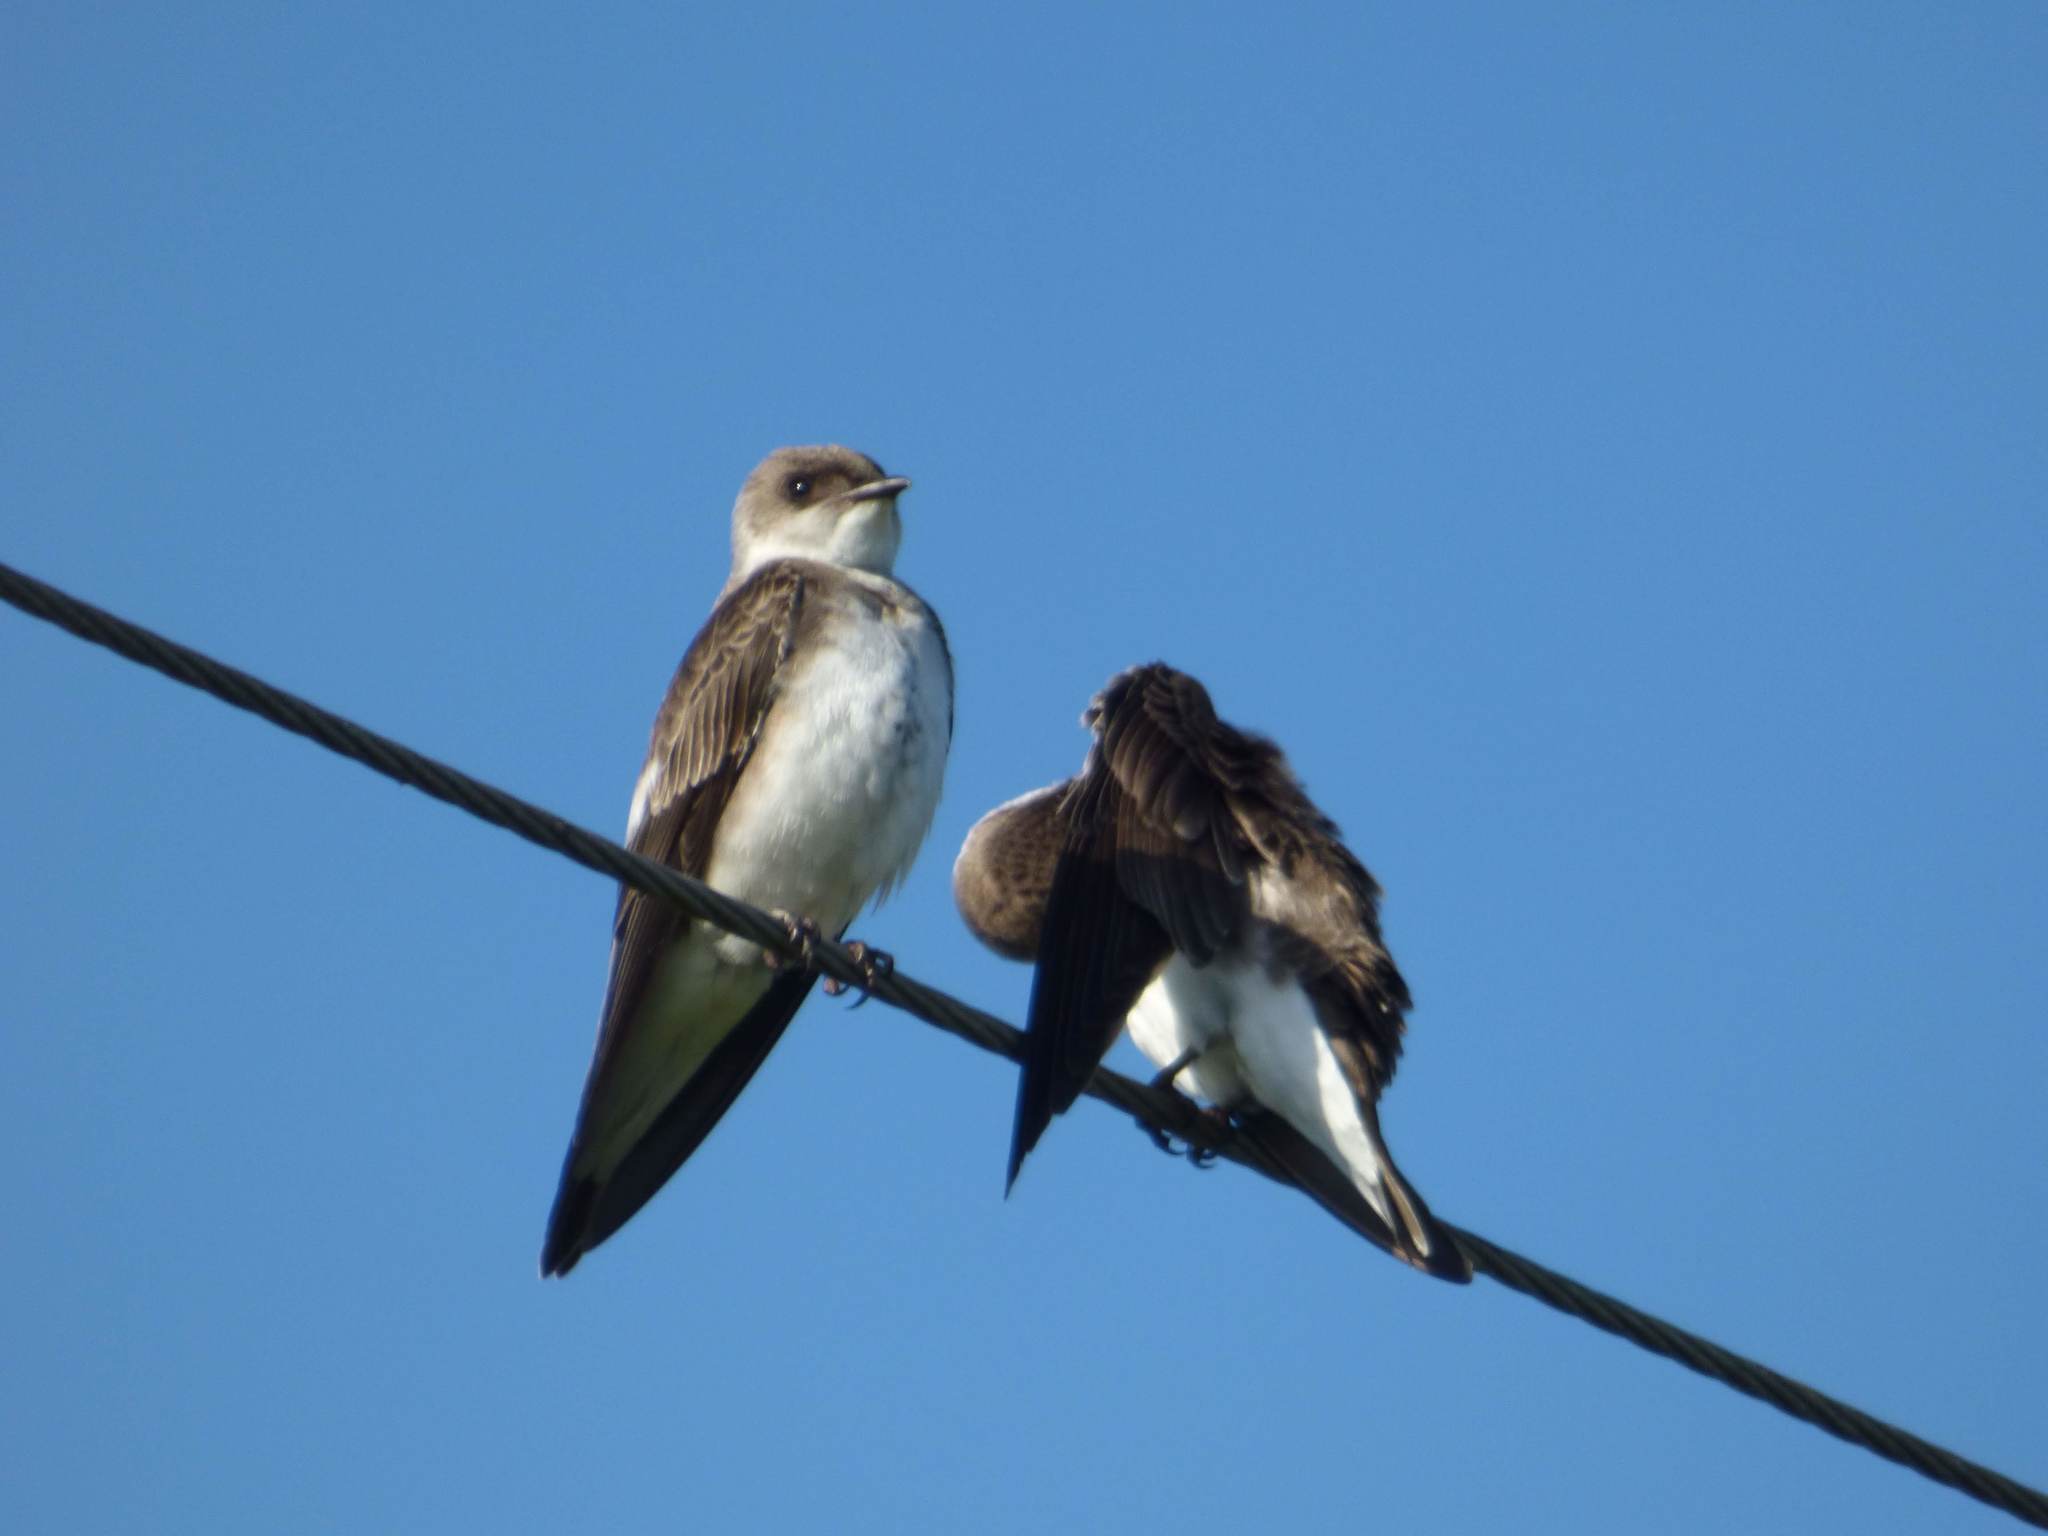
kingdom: Animalia
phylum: Chordata
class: Aves
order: Passeriformes
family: Hirundinidae
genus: Progne
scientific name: Progne tapera
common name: Brown-chested martin
